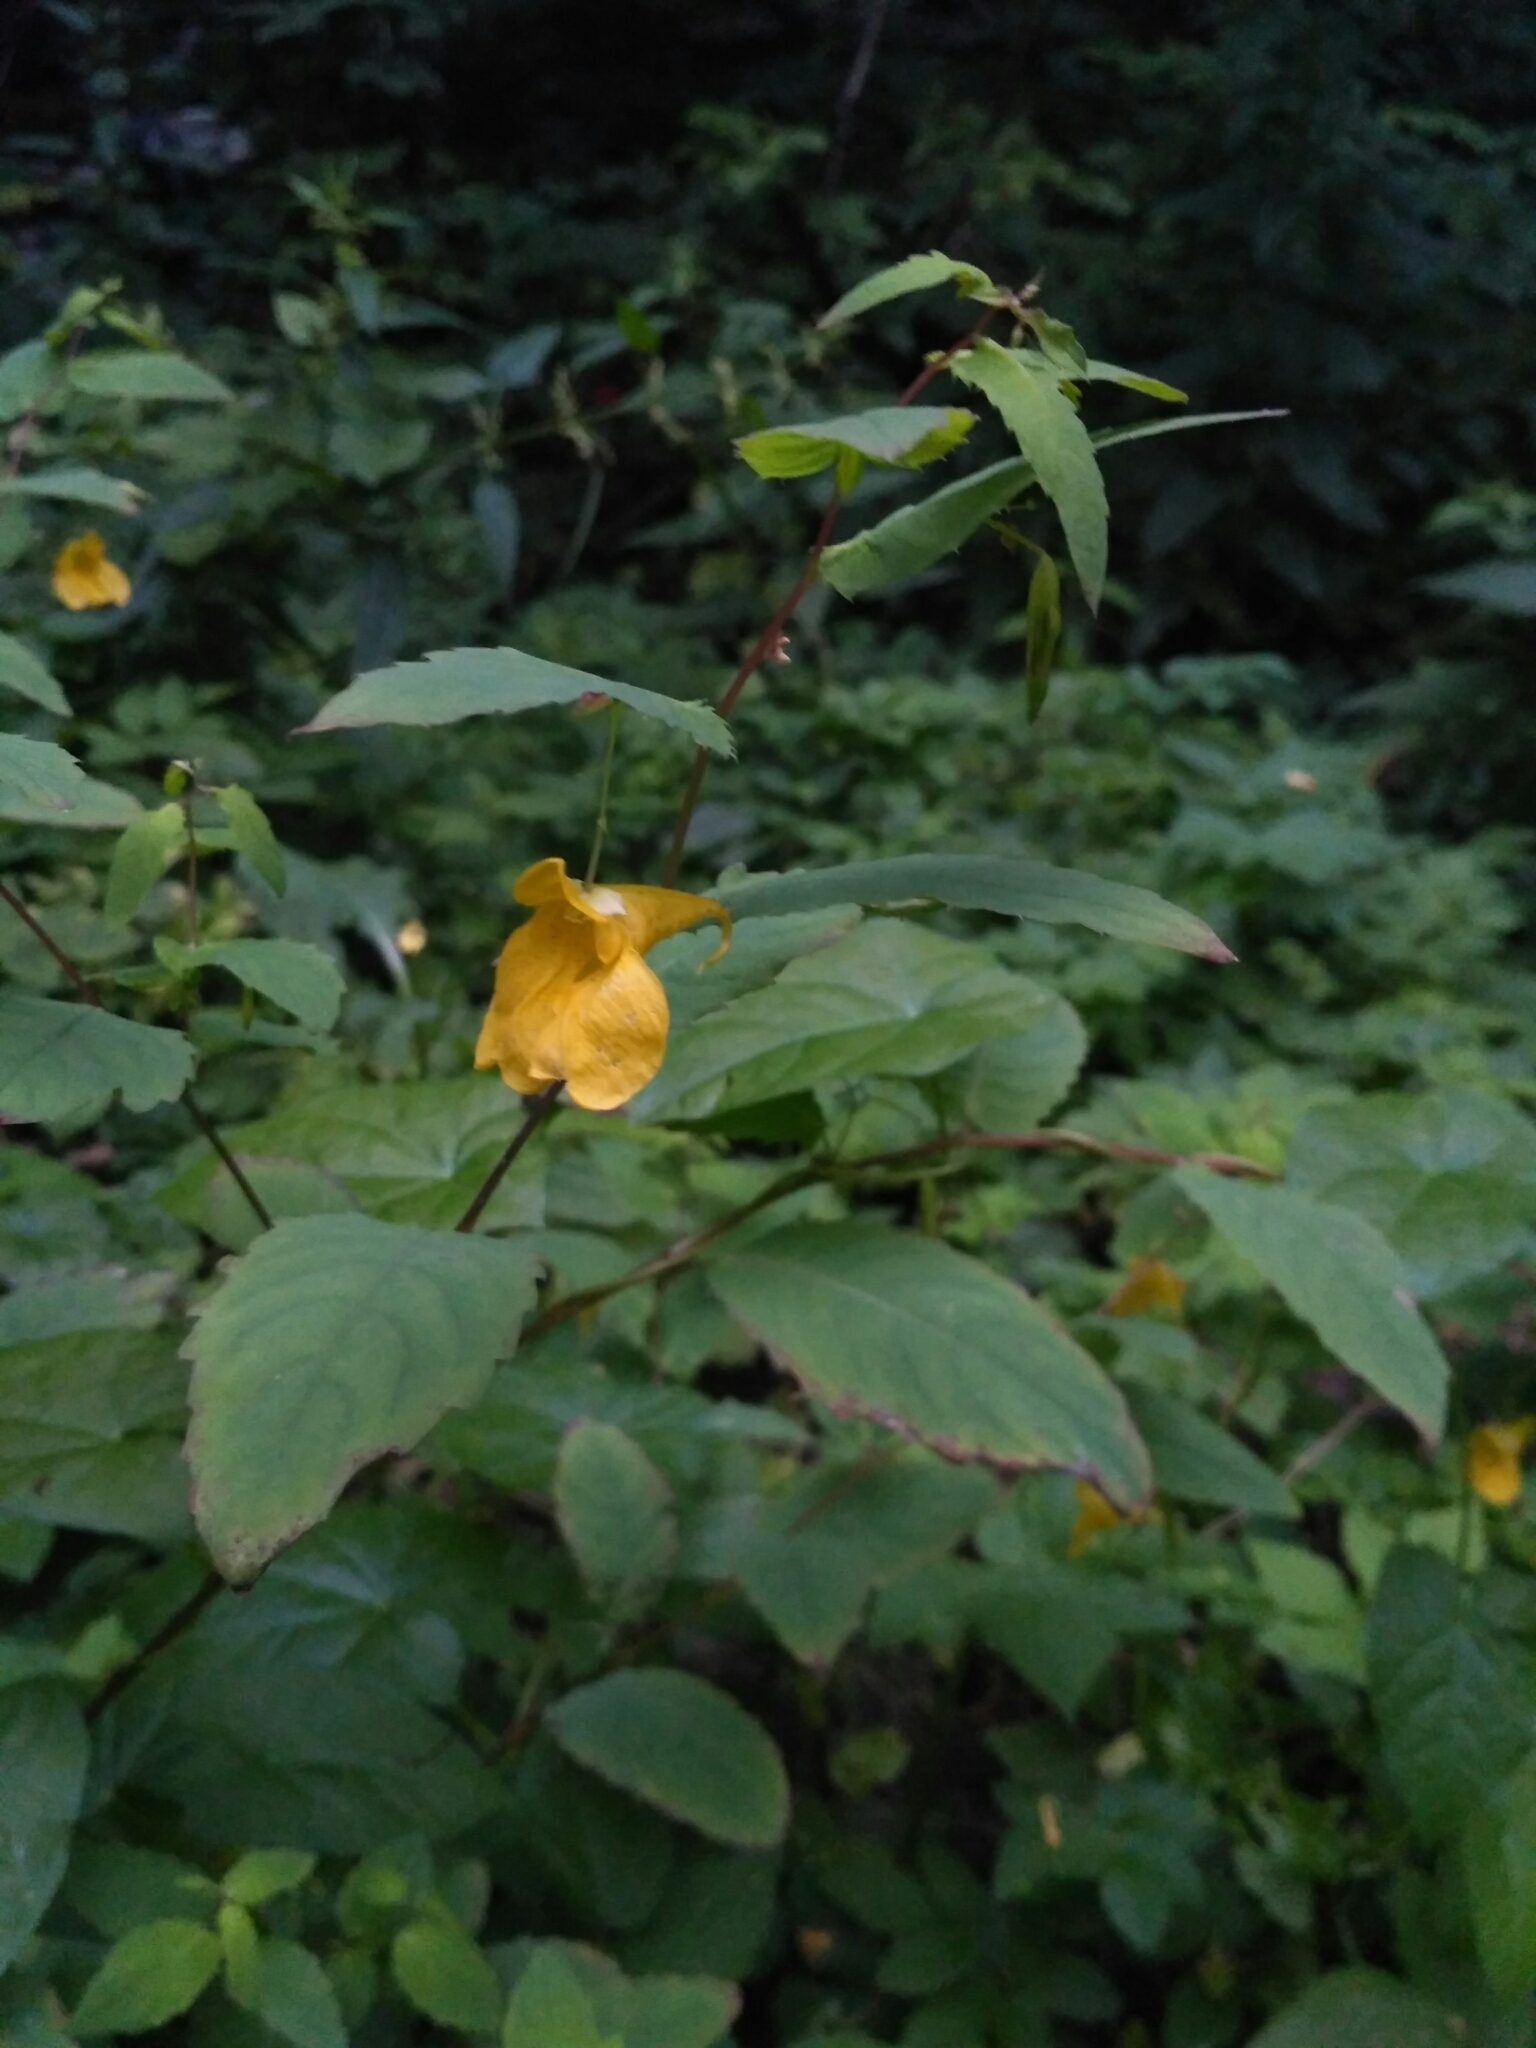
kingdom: Plantae
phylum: Tracheophyta
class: Magnoliopsida
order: Ericales
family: Balsaminaceae
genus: Impatiens
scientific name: Impatiens noli-tangere
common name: Touch-me-not balsam
